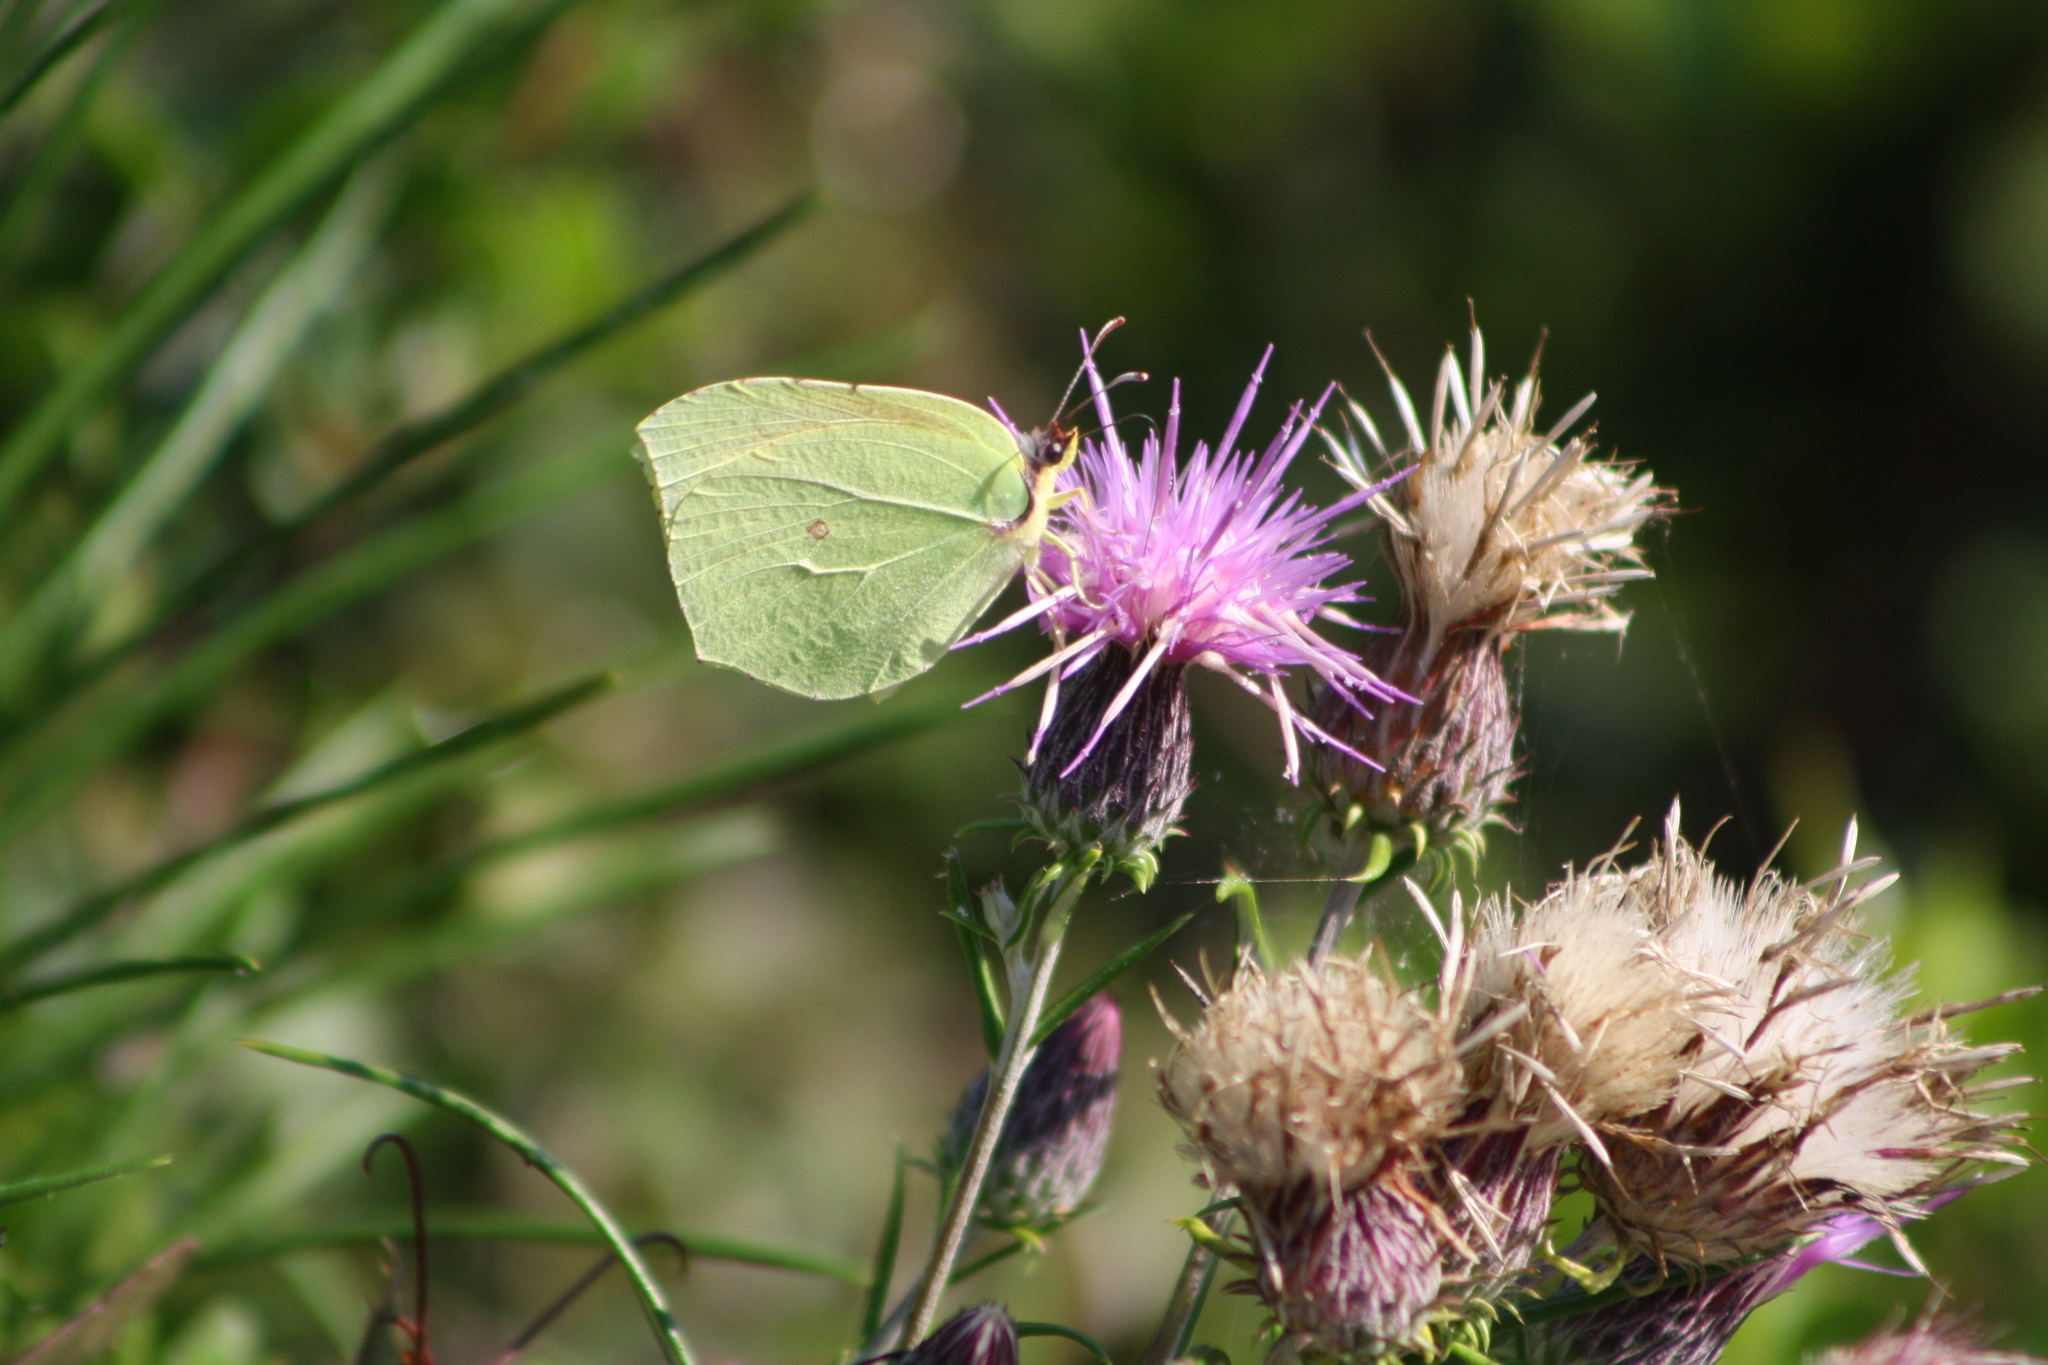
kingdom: Animalia
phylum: Arthropoda
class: Insecta
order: Lepidoptera
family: Pieridae
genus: Gonepteryx
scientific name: Gonepteryx cleopatra
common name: Cleopatra
